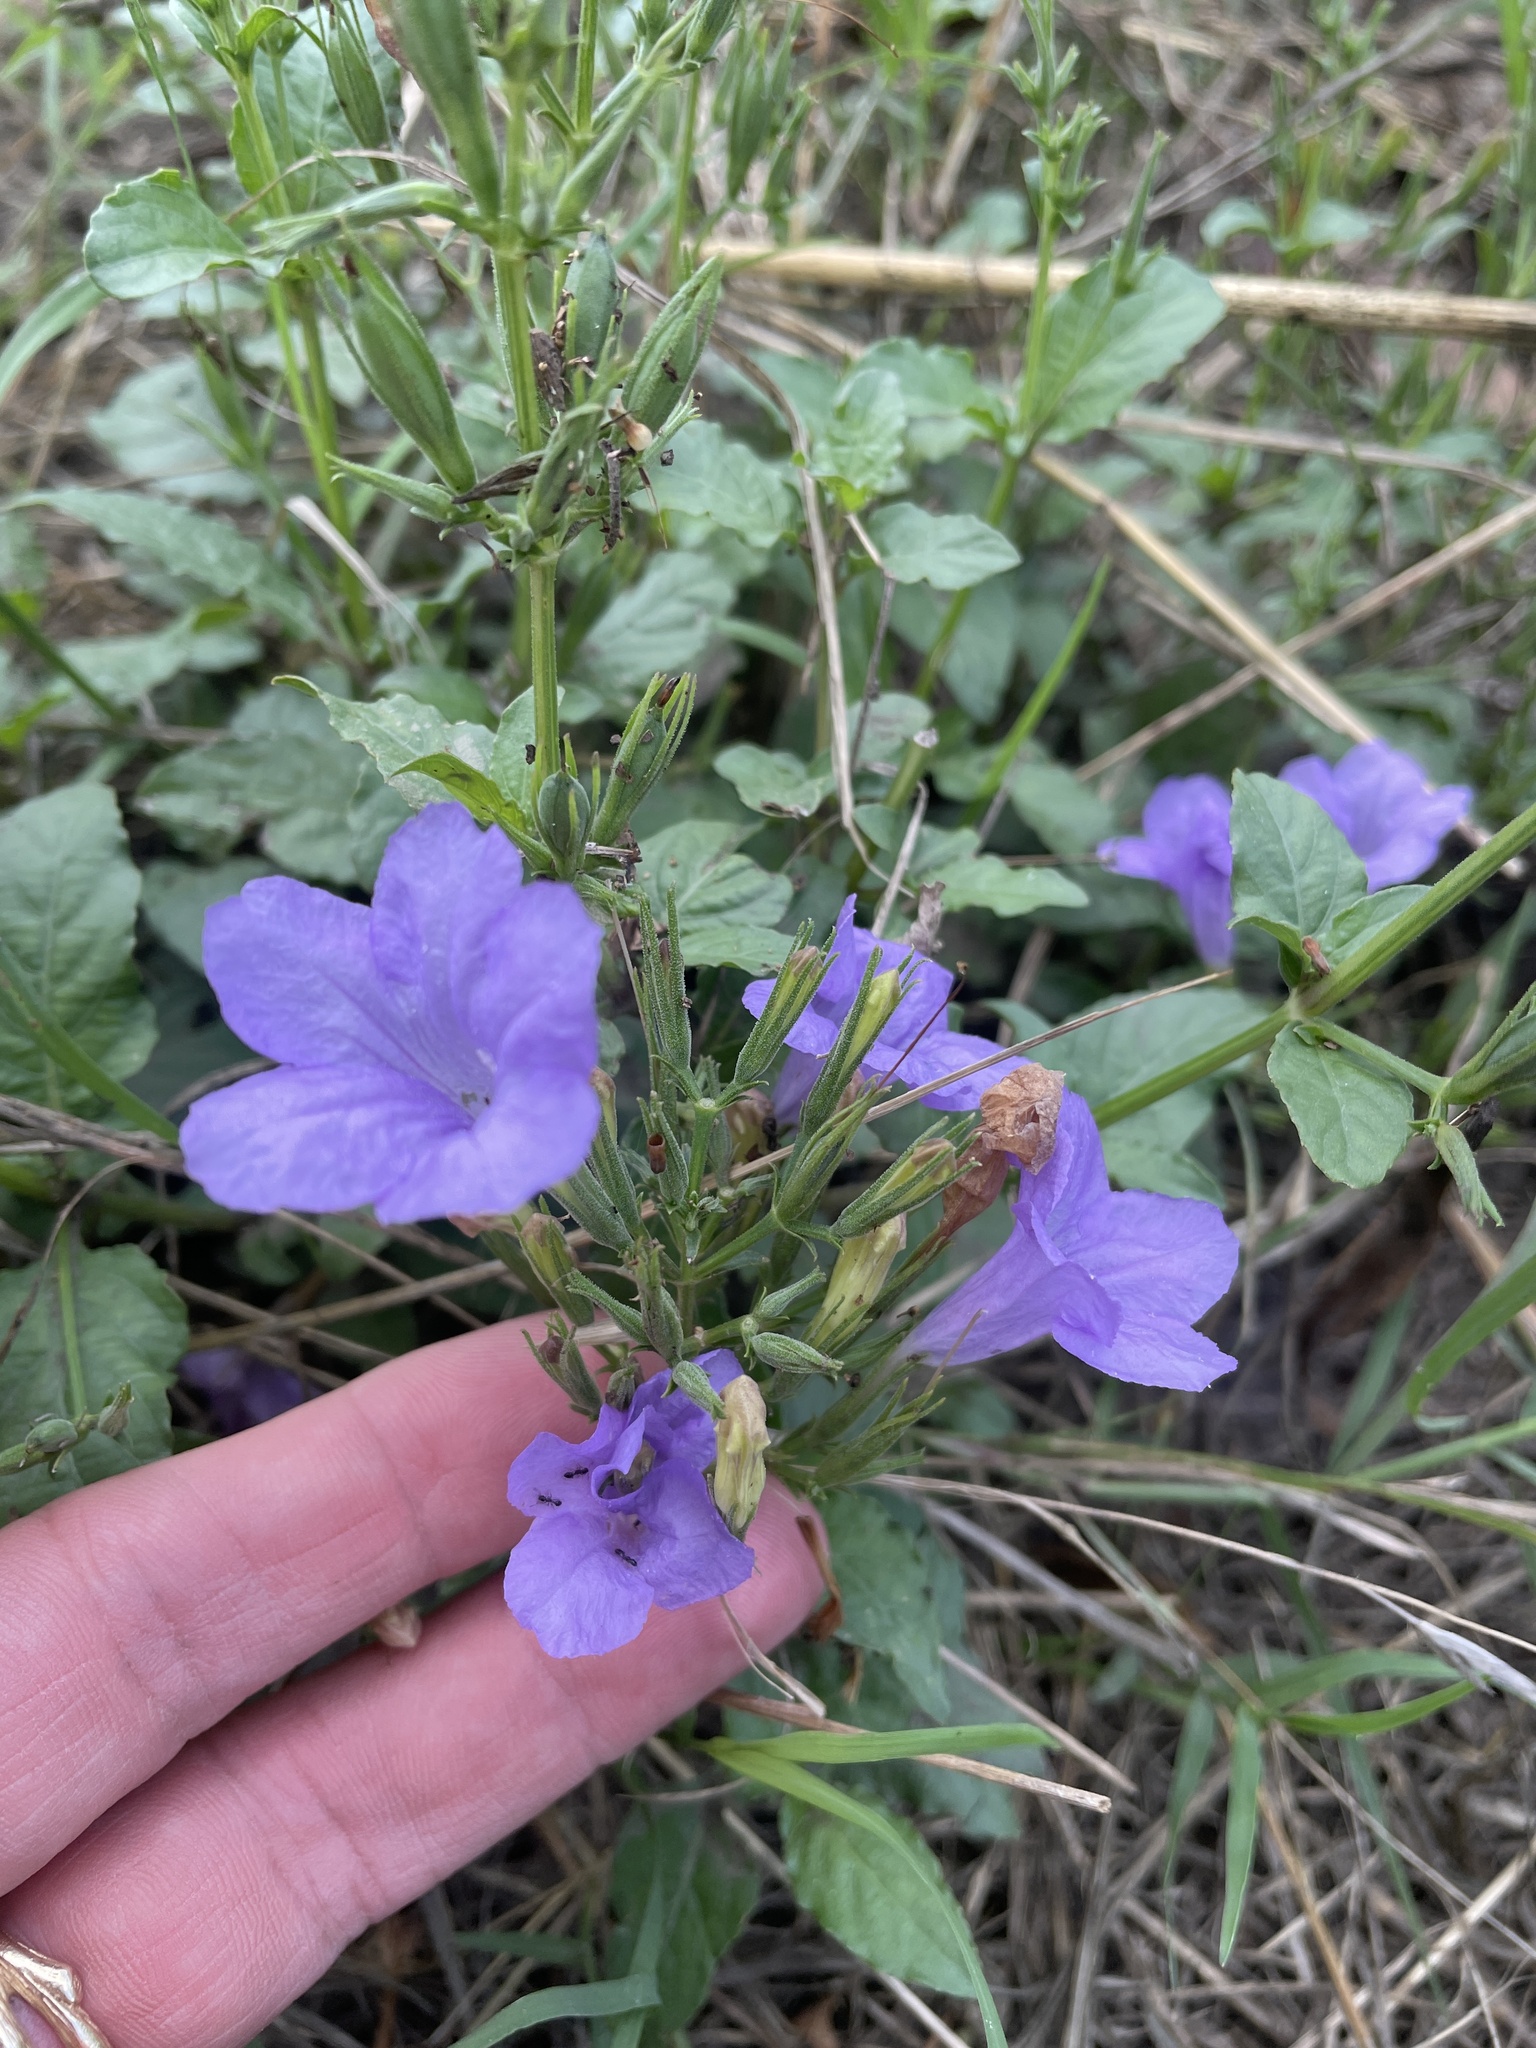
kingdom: Plantae
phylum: Tracheophyta
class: Magnoliopsida
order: Lamiales
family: Acanthaceae
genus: Ruellia
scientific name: Ruellia ciliatiflora
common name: Hairyflower wild petunia
